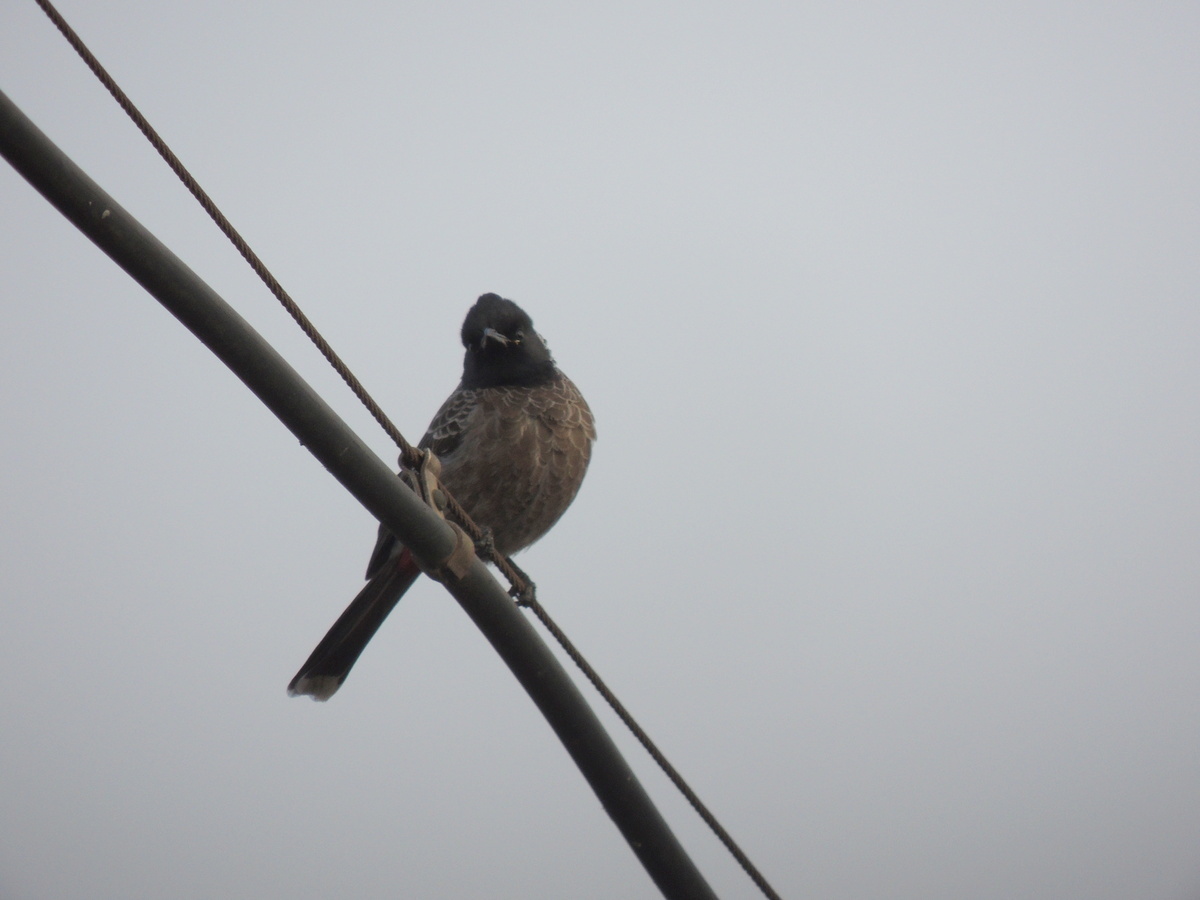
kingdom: Animalia
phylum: Chordata
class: Aves
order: Passeriformes
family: Pycnonotidae
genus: Pycnonotus
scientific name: Pycnonotus cafer
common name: Red-vented bulbul
